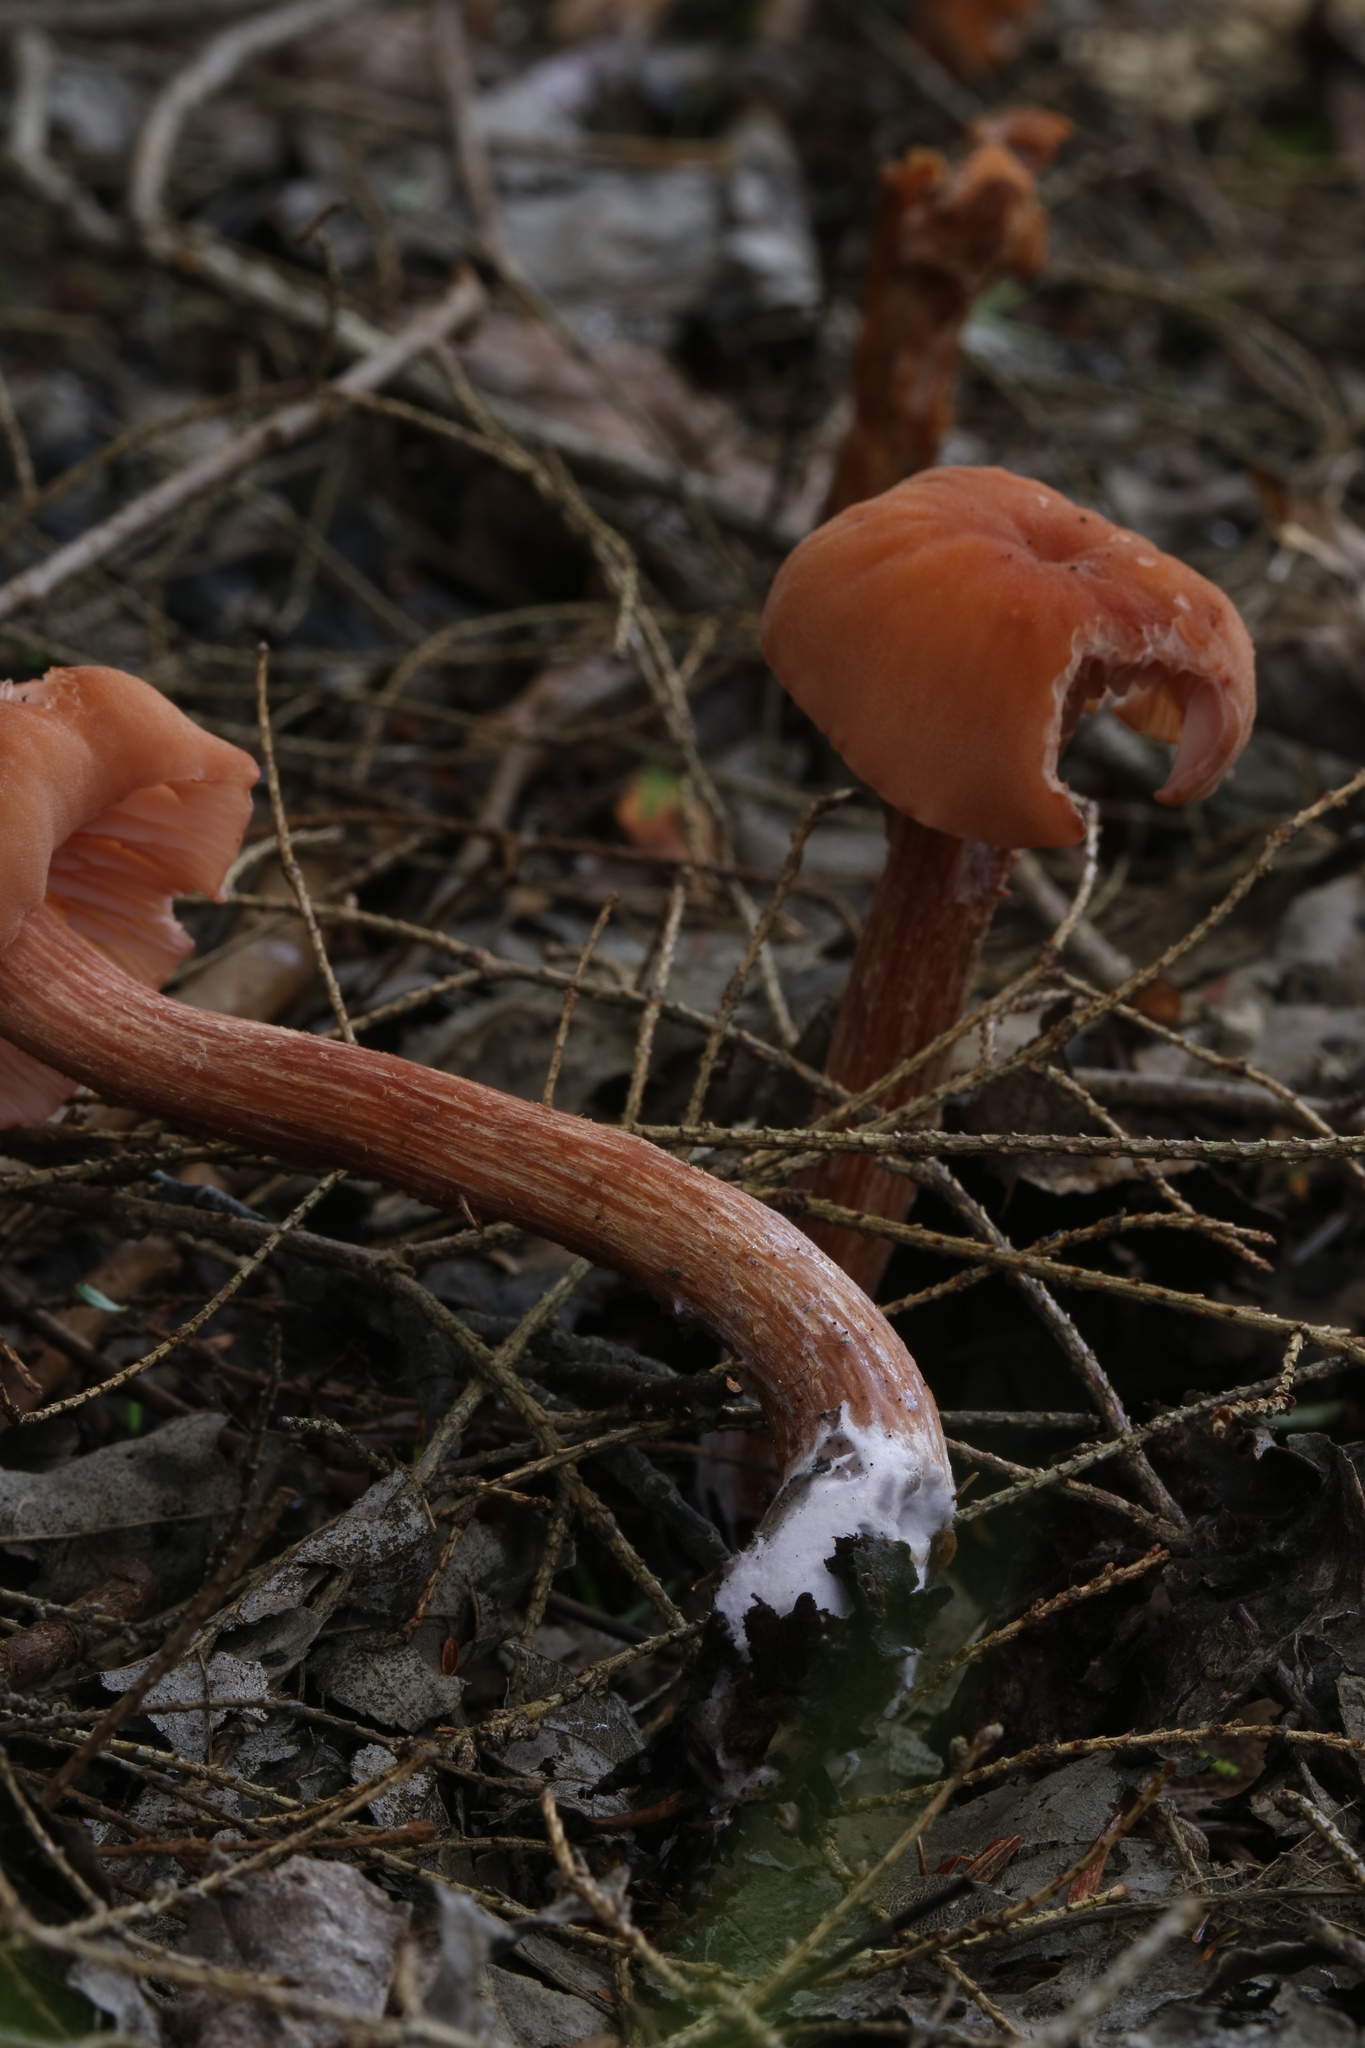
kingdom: Fungi
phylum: Basidiomycota
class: Agaricomycetes
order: Agaricales
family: Hydnangiaceae
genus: Laccaria
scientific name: Laccaria bicolor
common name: Bicoloured deceiver
